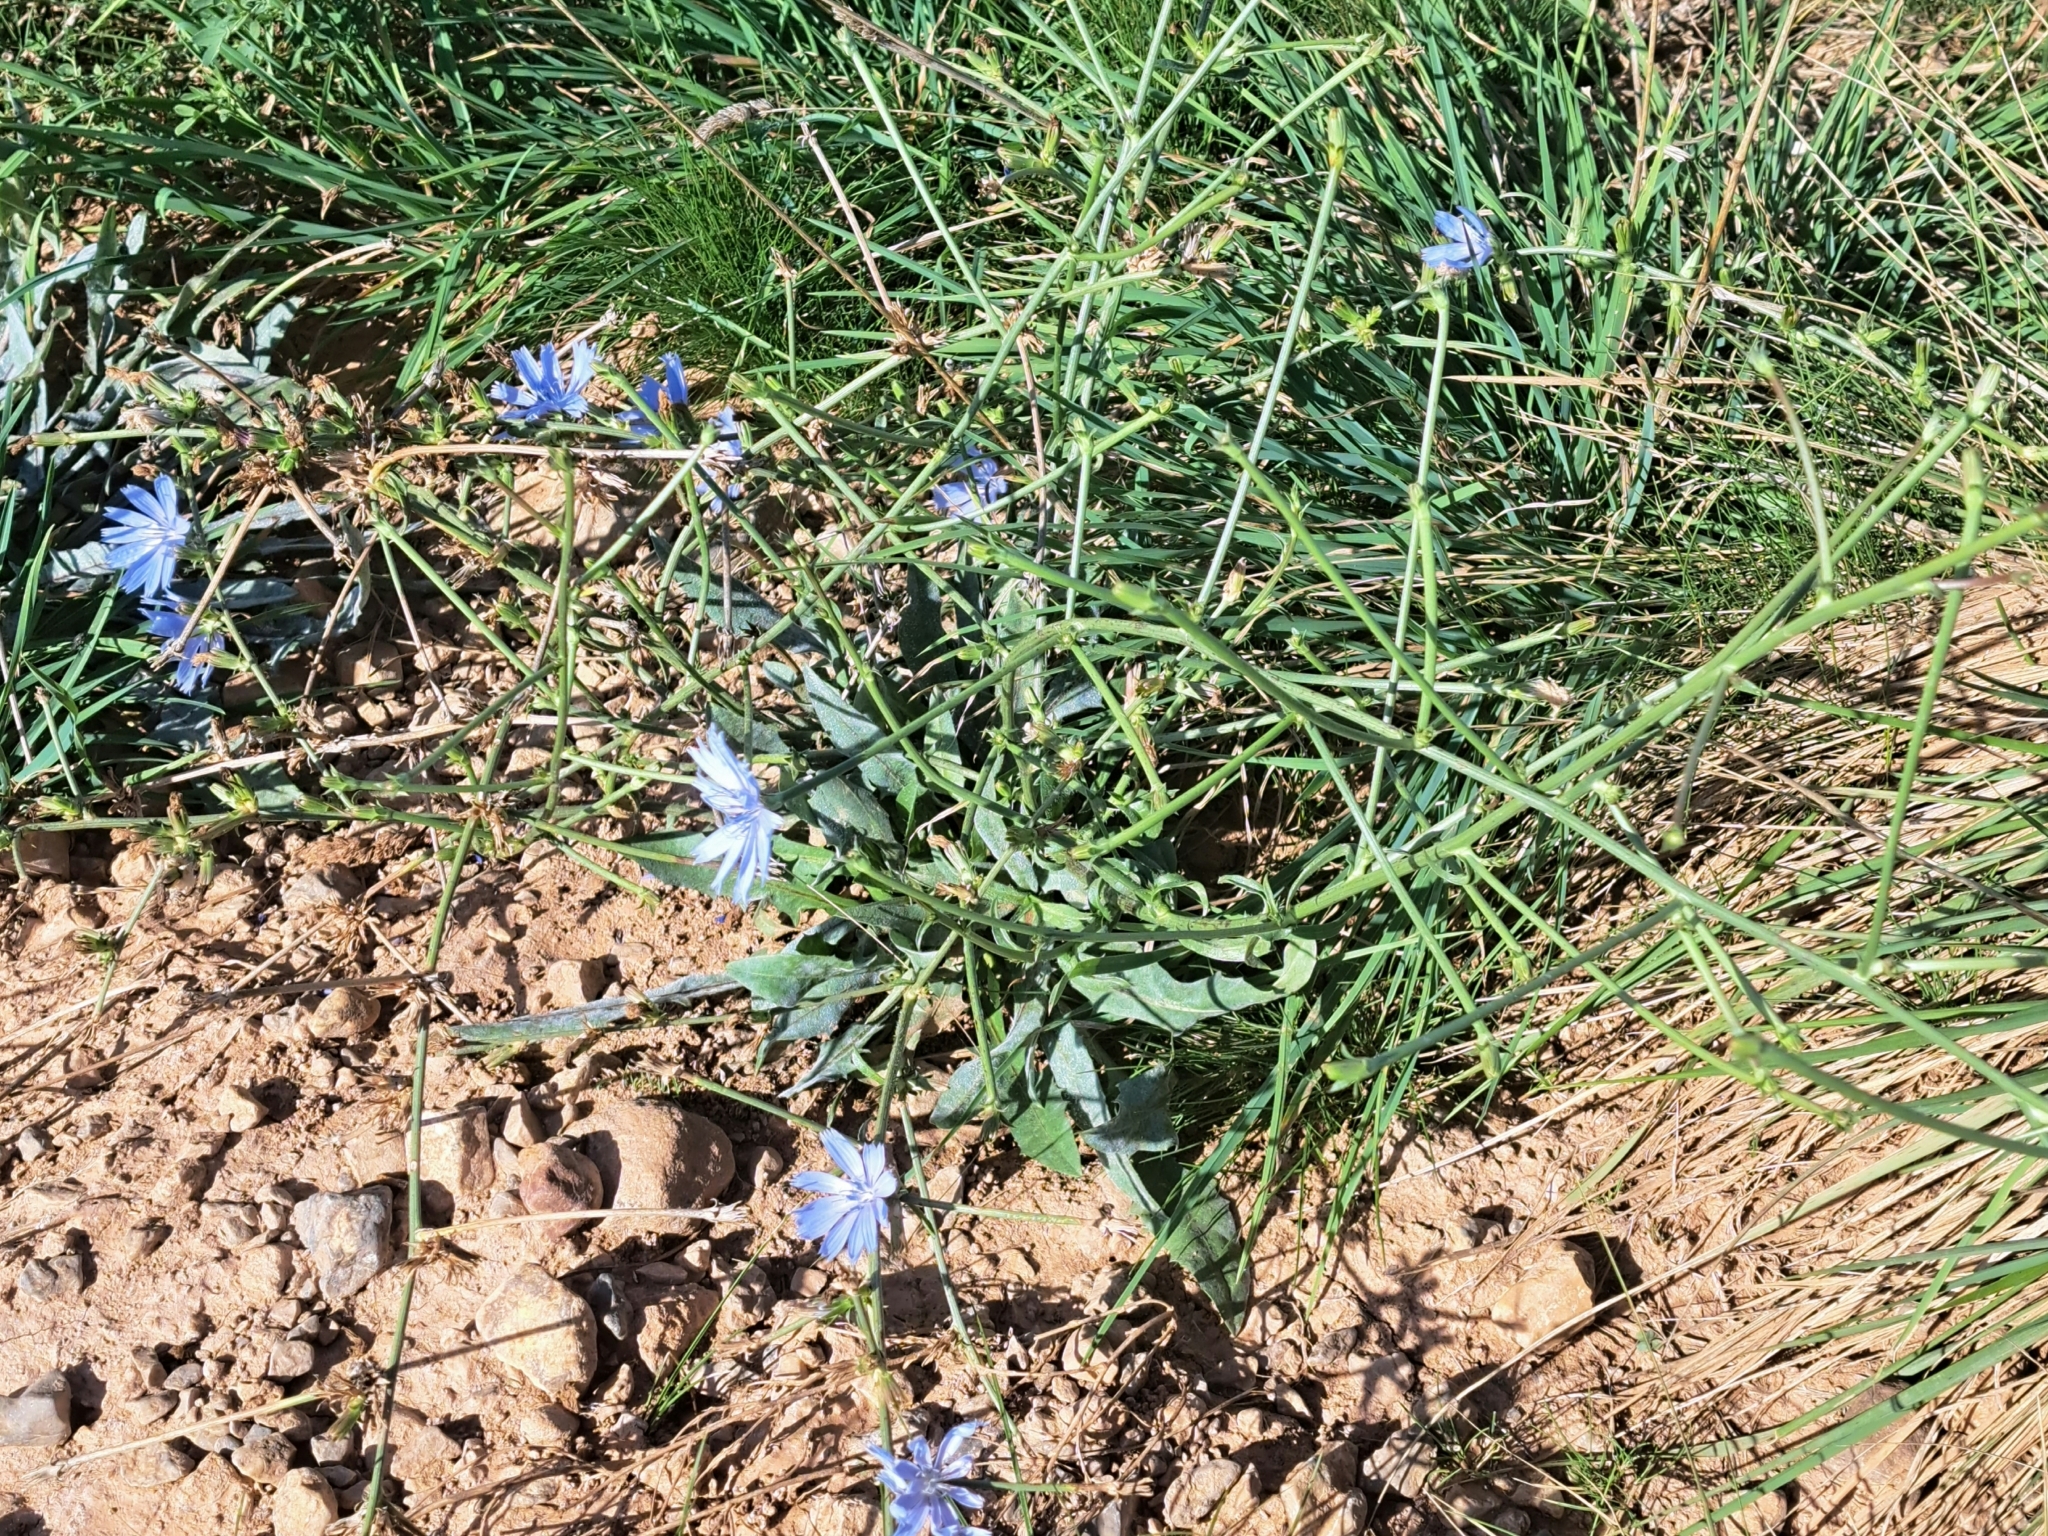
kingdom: Plantae
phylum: Tracheophyta
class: Magnoliopsida
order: Asterales
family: Asteraceae
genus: Cichorium
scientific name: Cichorium intybus
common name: Chicory
